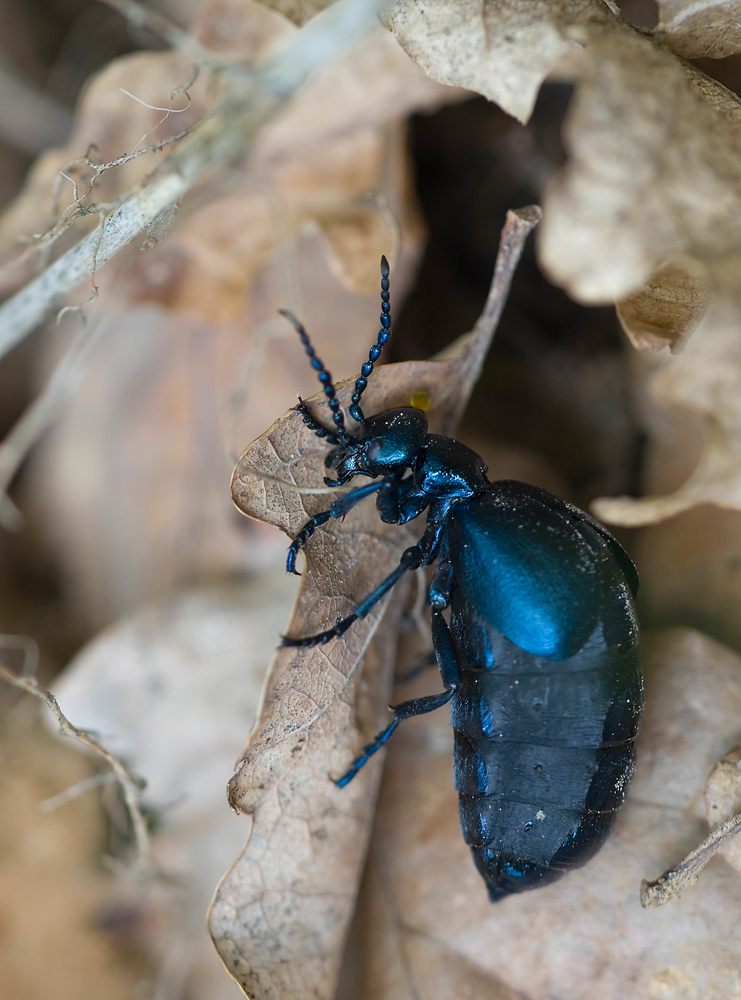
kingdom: Animalia
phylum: Arthropoda
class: Insecta
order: Coleoptera
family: Meloidae
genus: Meloe
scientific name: Meloe violaceus
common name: Violet oil-beetle
